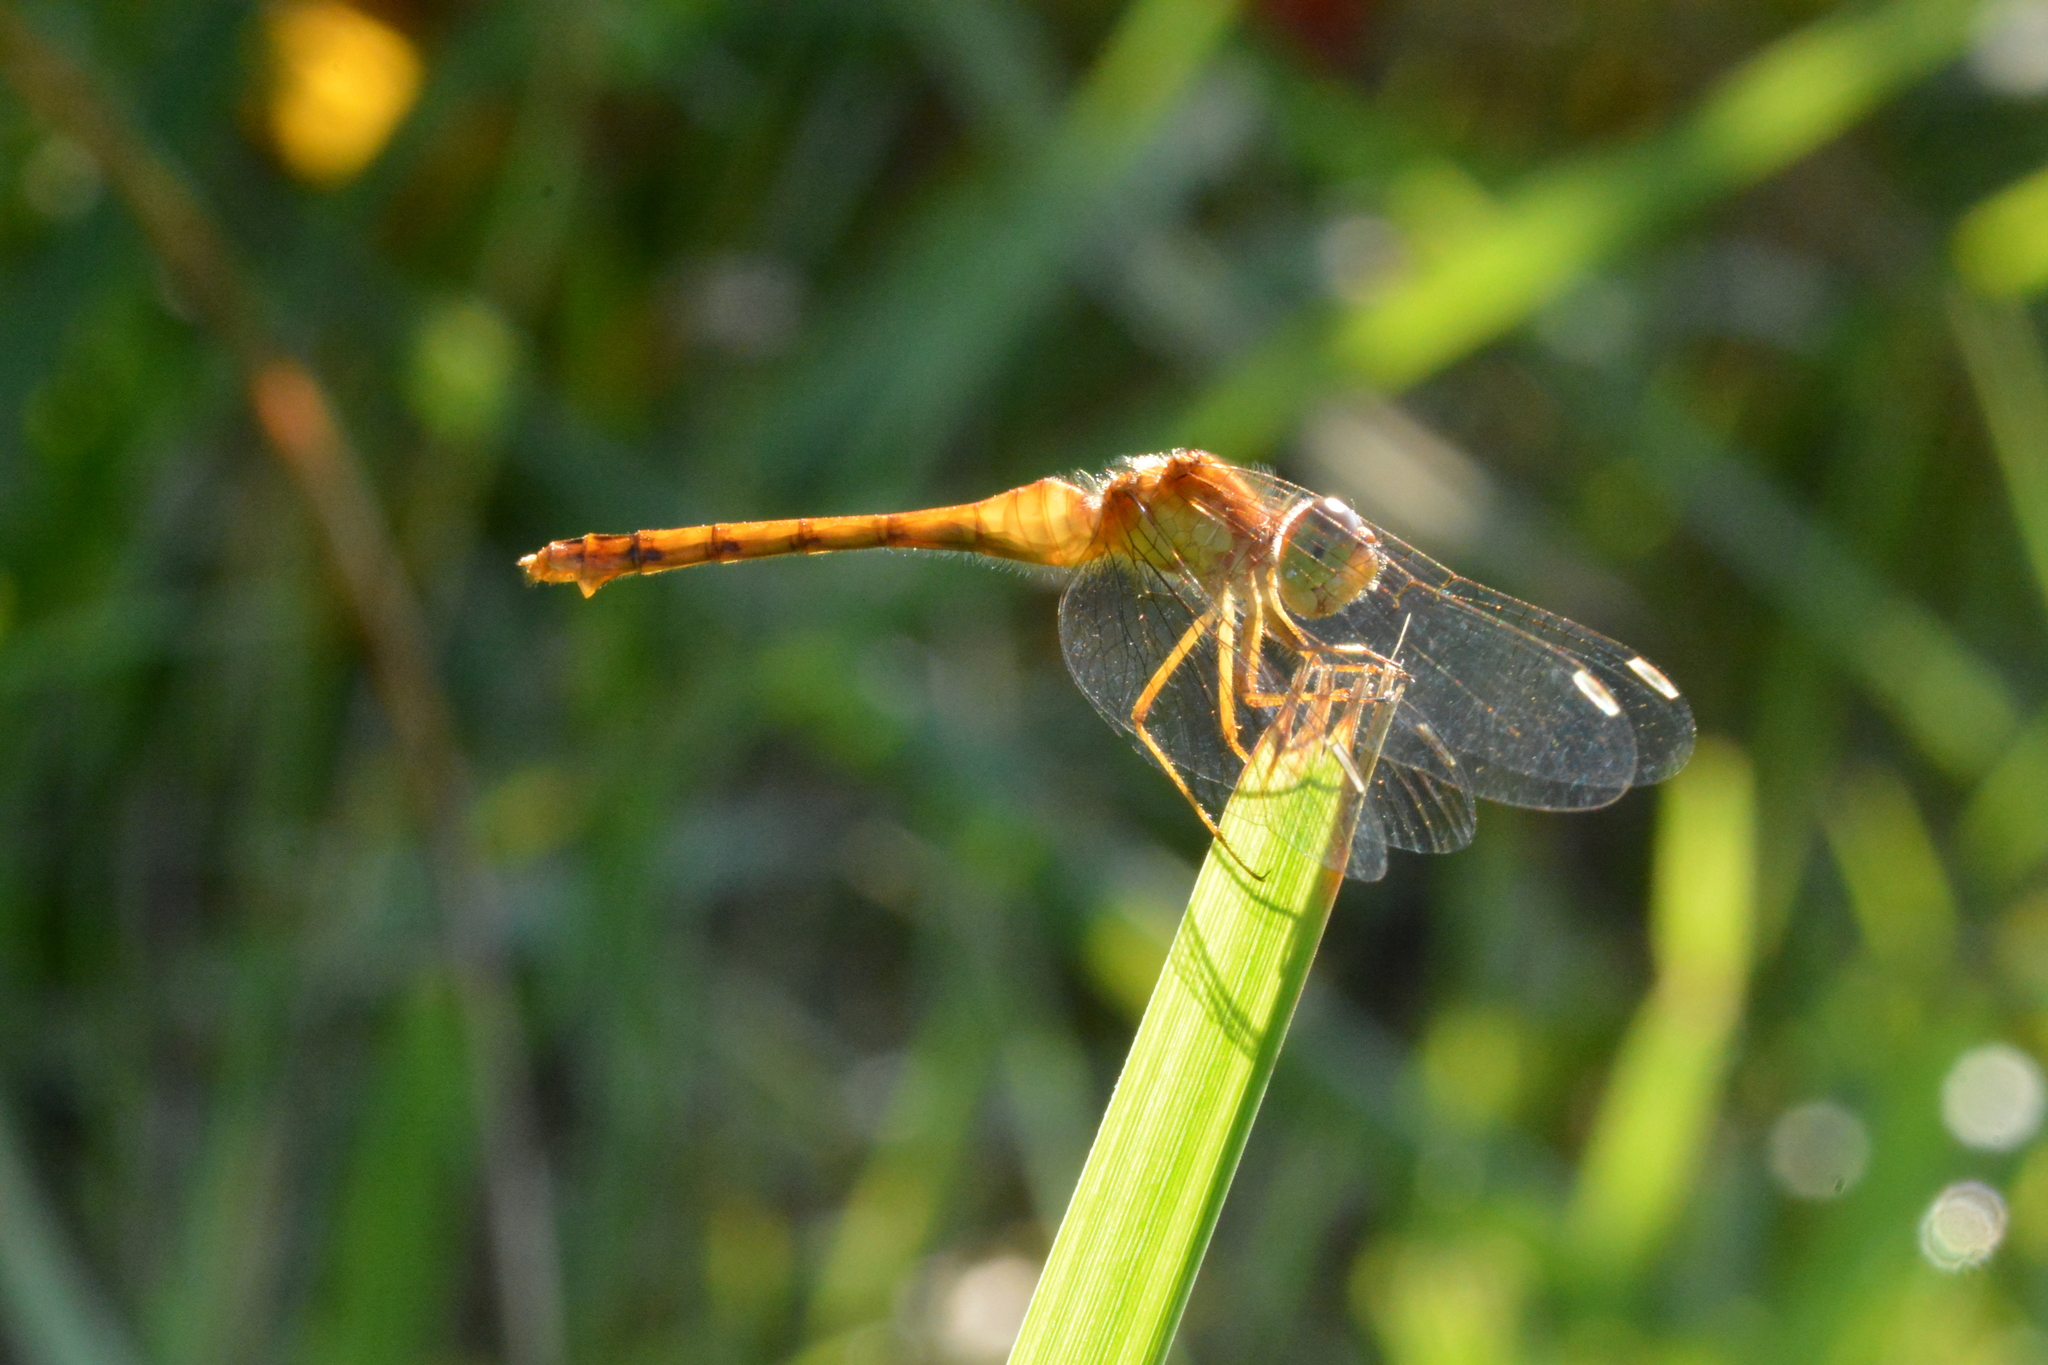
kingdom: Animalia
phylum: Arthropoda
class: Insecta
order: Odonata
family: Libellulidae
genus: Sympetrum
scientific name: Sympetrum vicinum
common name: Autumn meadowhawk
